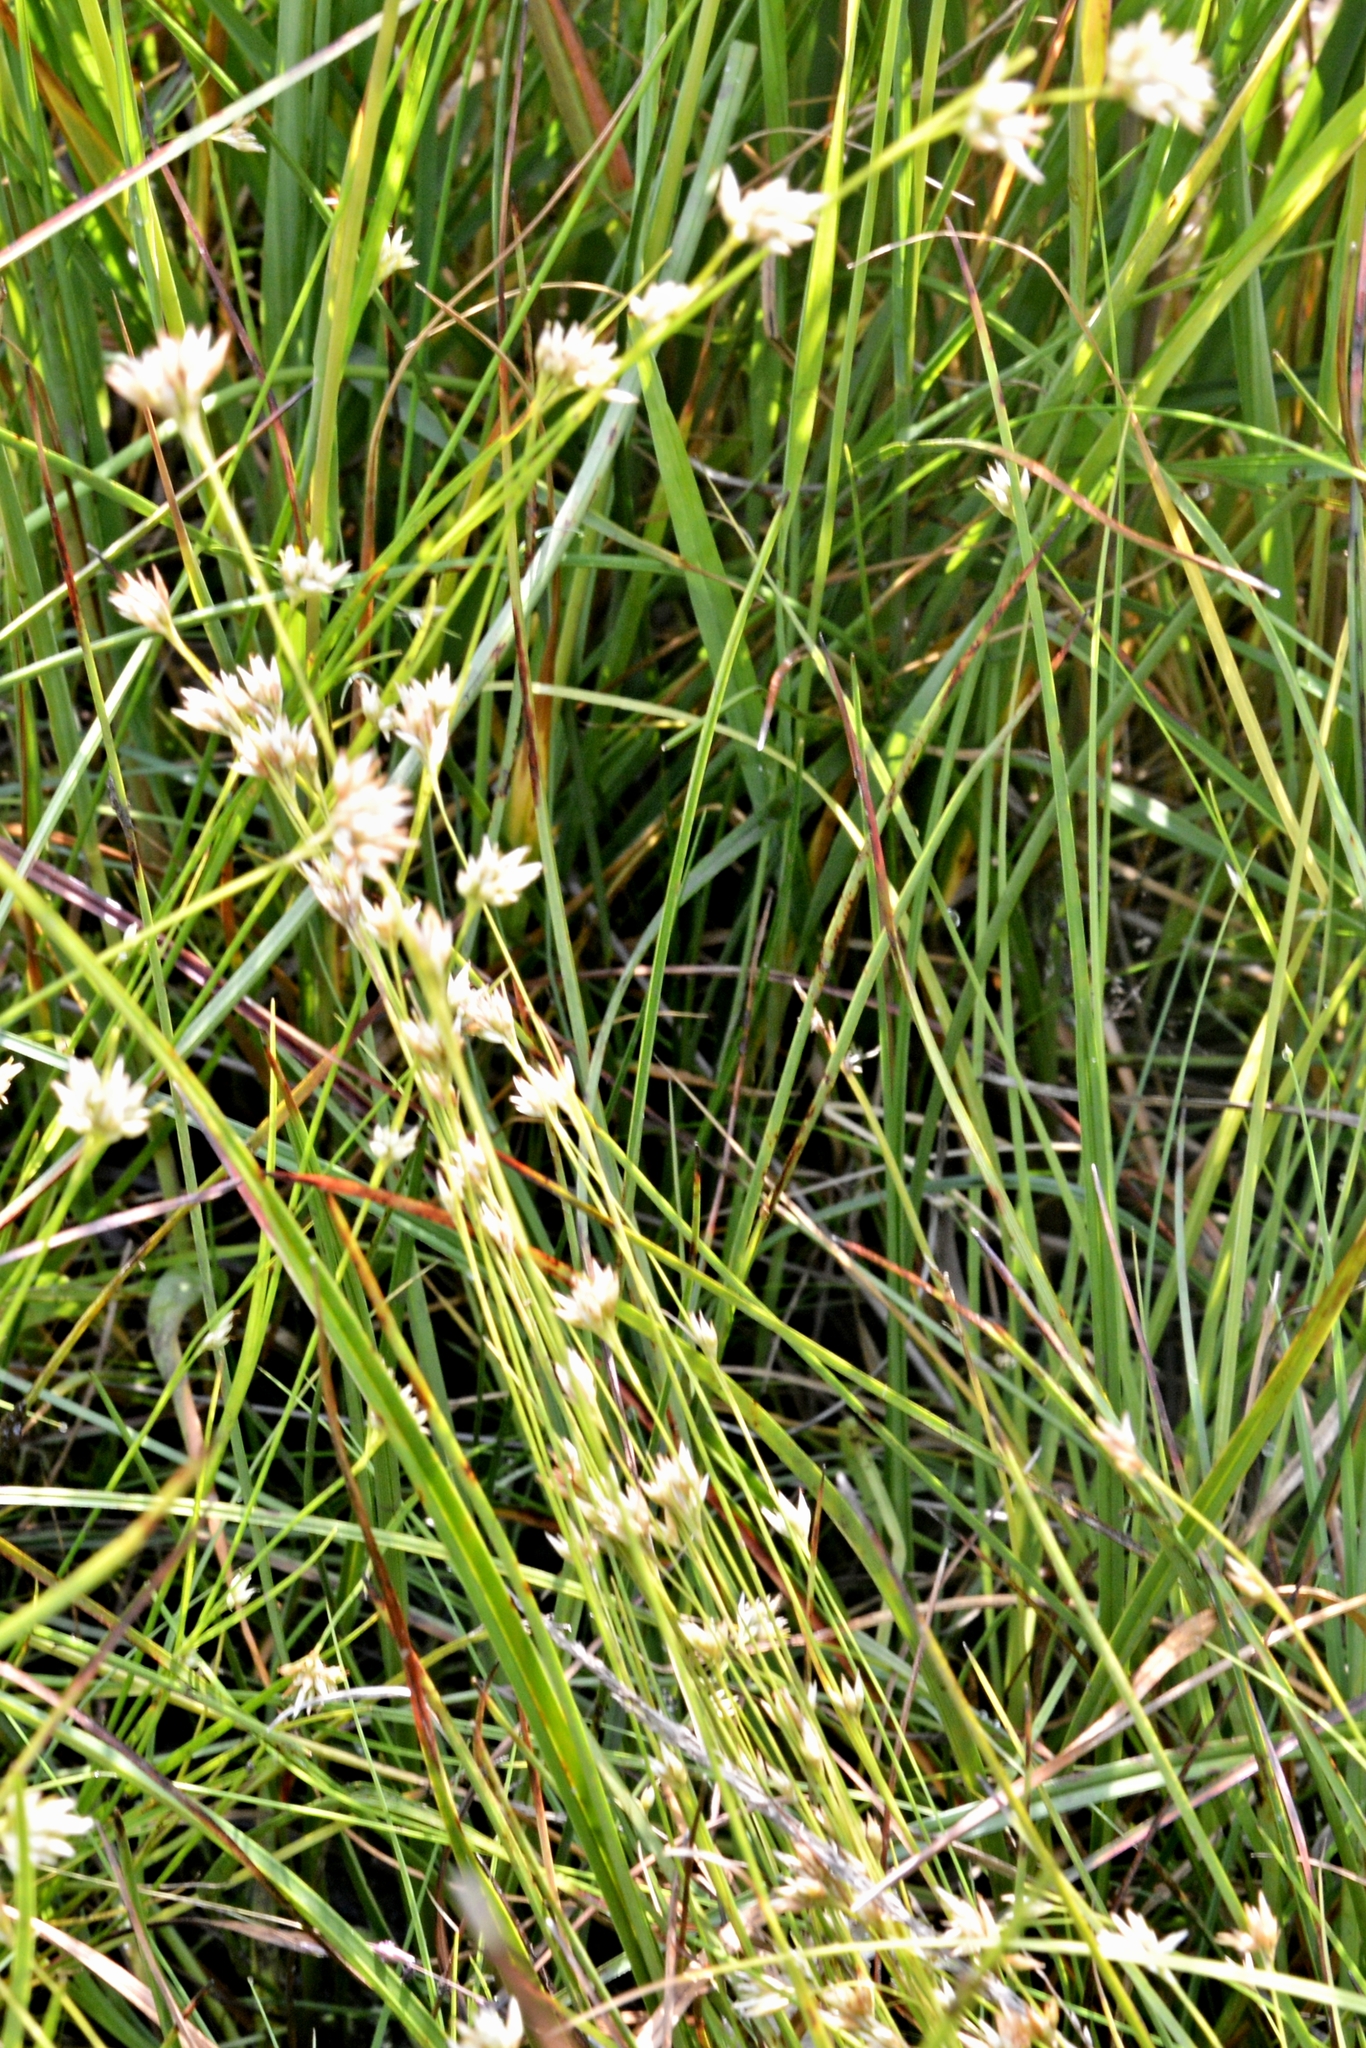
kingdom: Plantae
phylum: Tracheophyta
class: Liliopsida
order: Poales
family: Cyperaceae
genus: Rhynchospora
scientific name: Rhynchospora alba
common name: White beak-sedge
